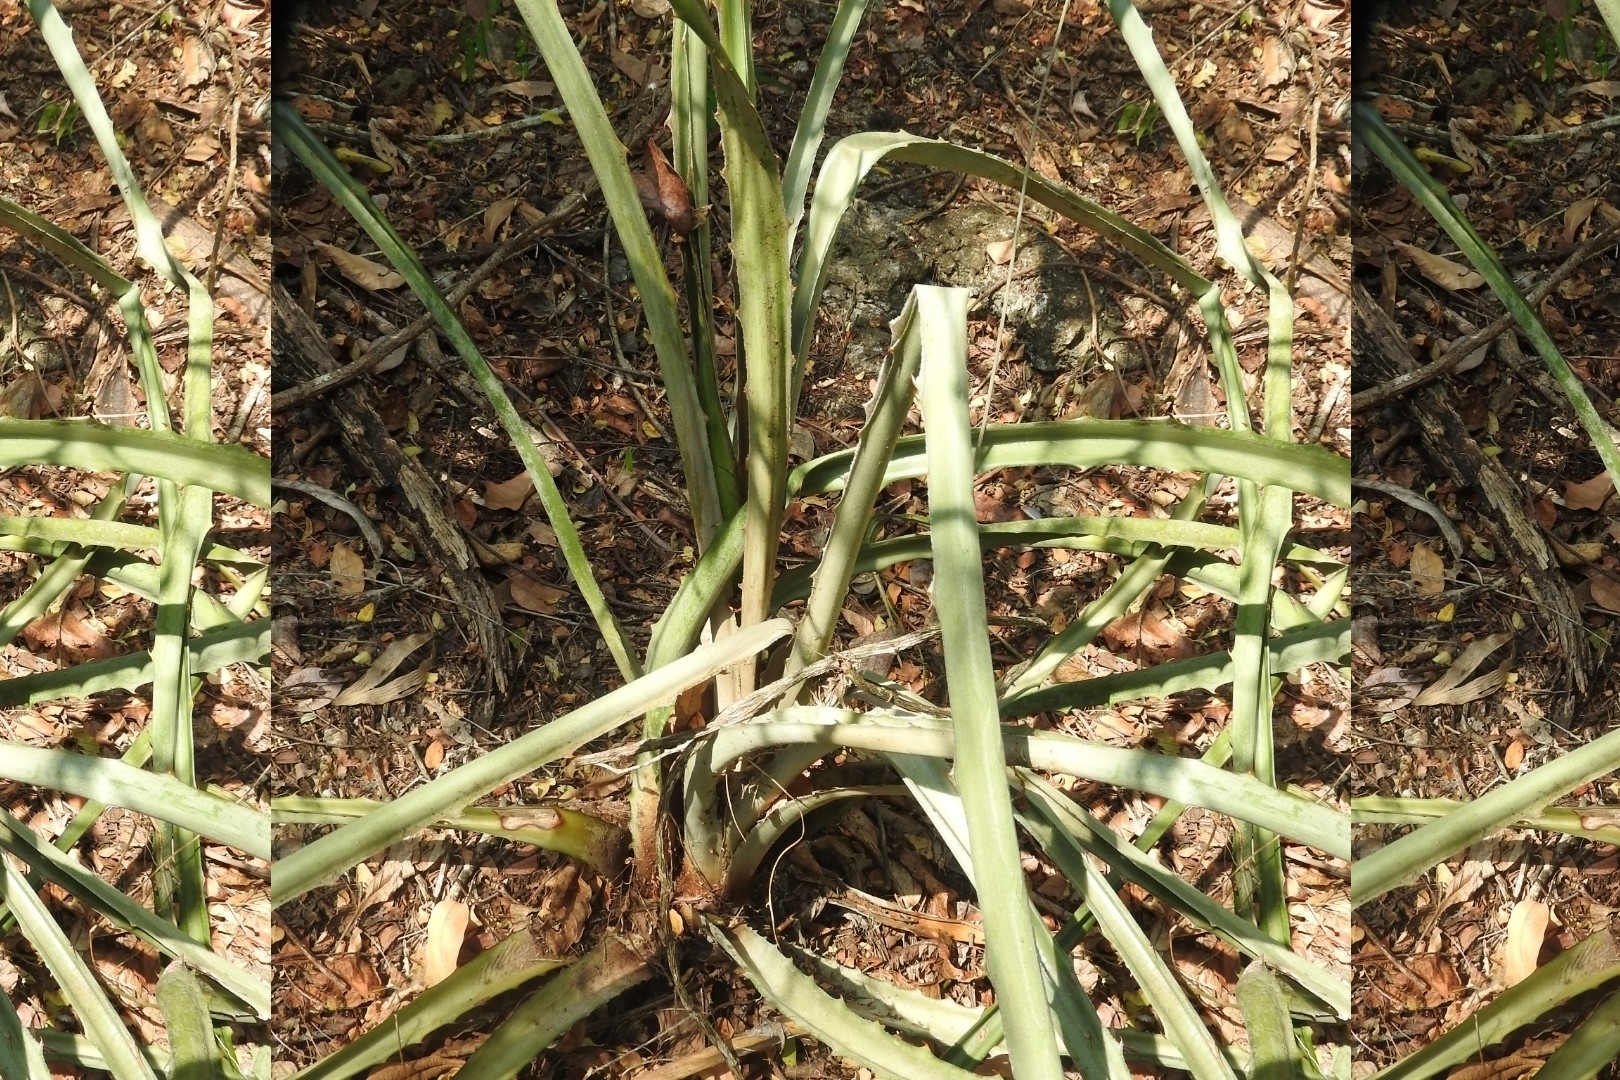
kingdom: Plantae
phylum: Tracheophyta
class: Liliopsida
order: Poales
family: Bromeliaceae
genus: Bromelia
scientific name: Bromelia pinguin
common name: Pinguin
